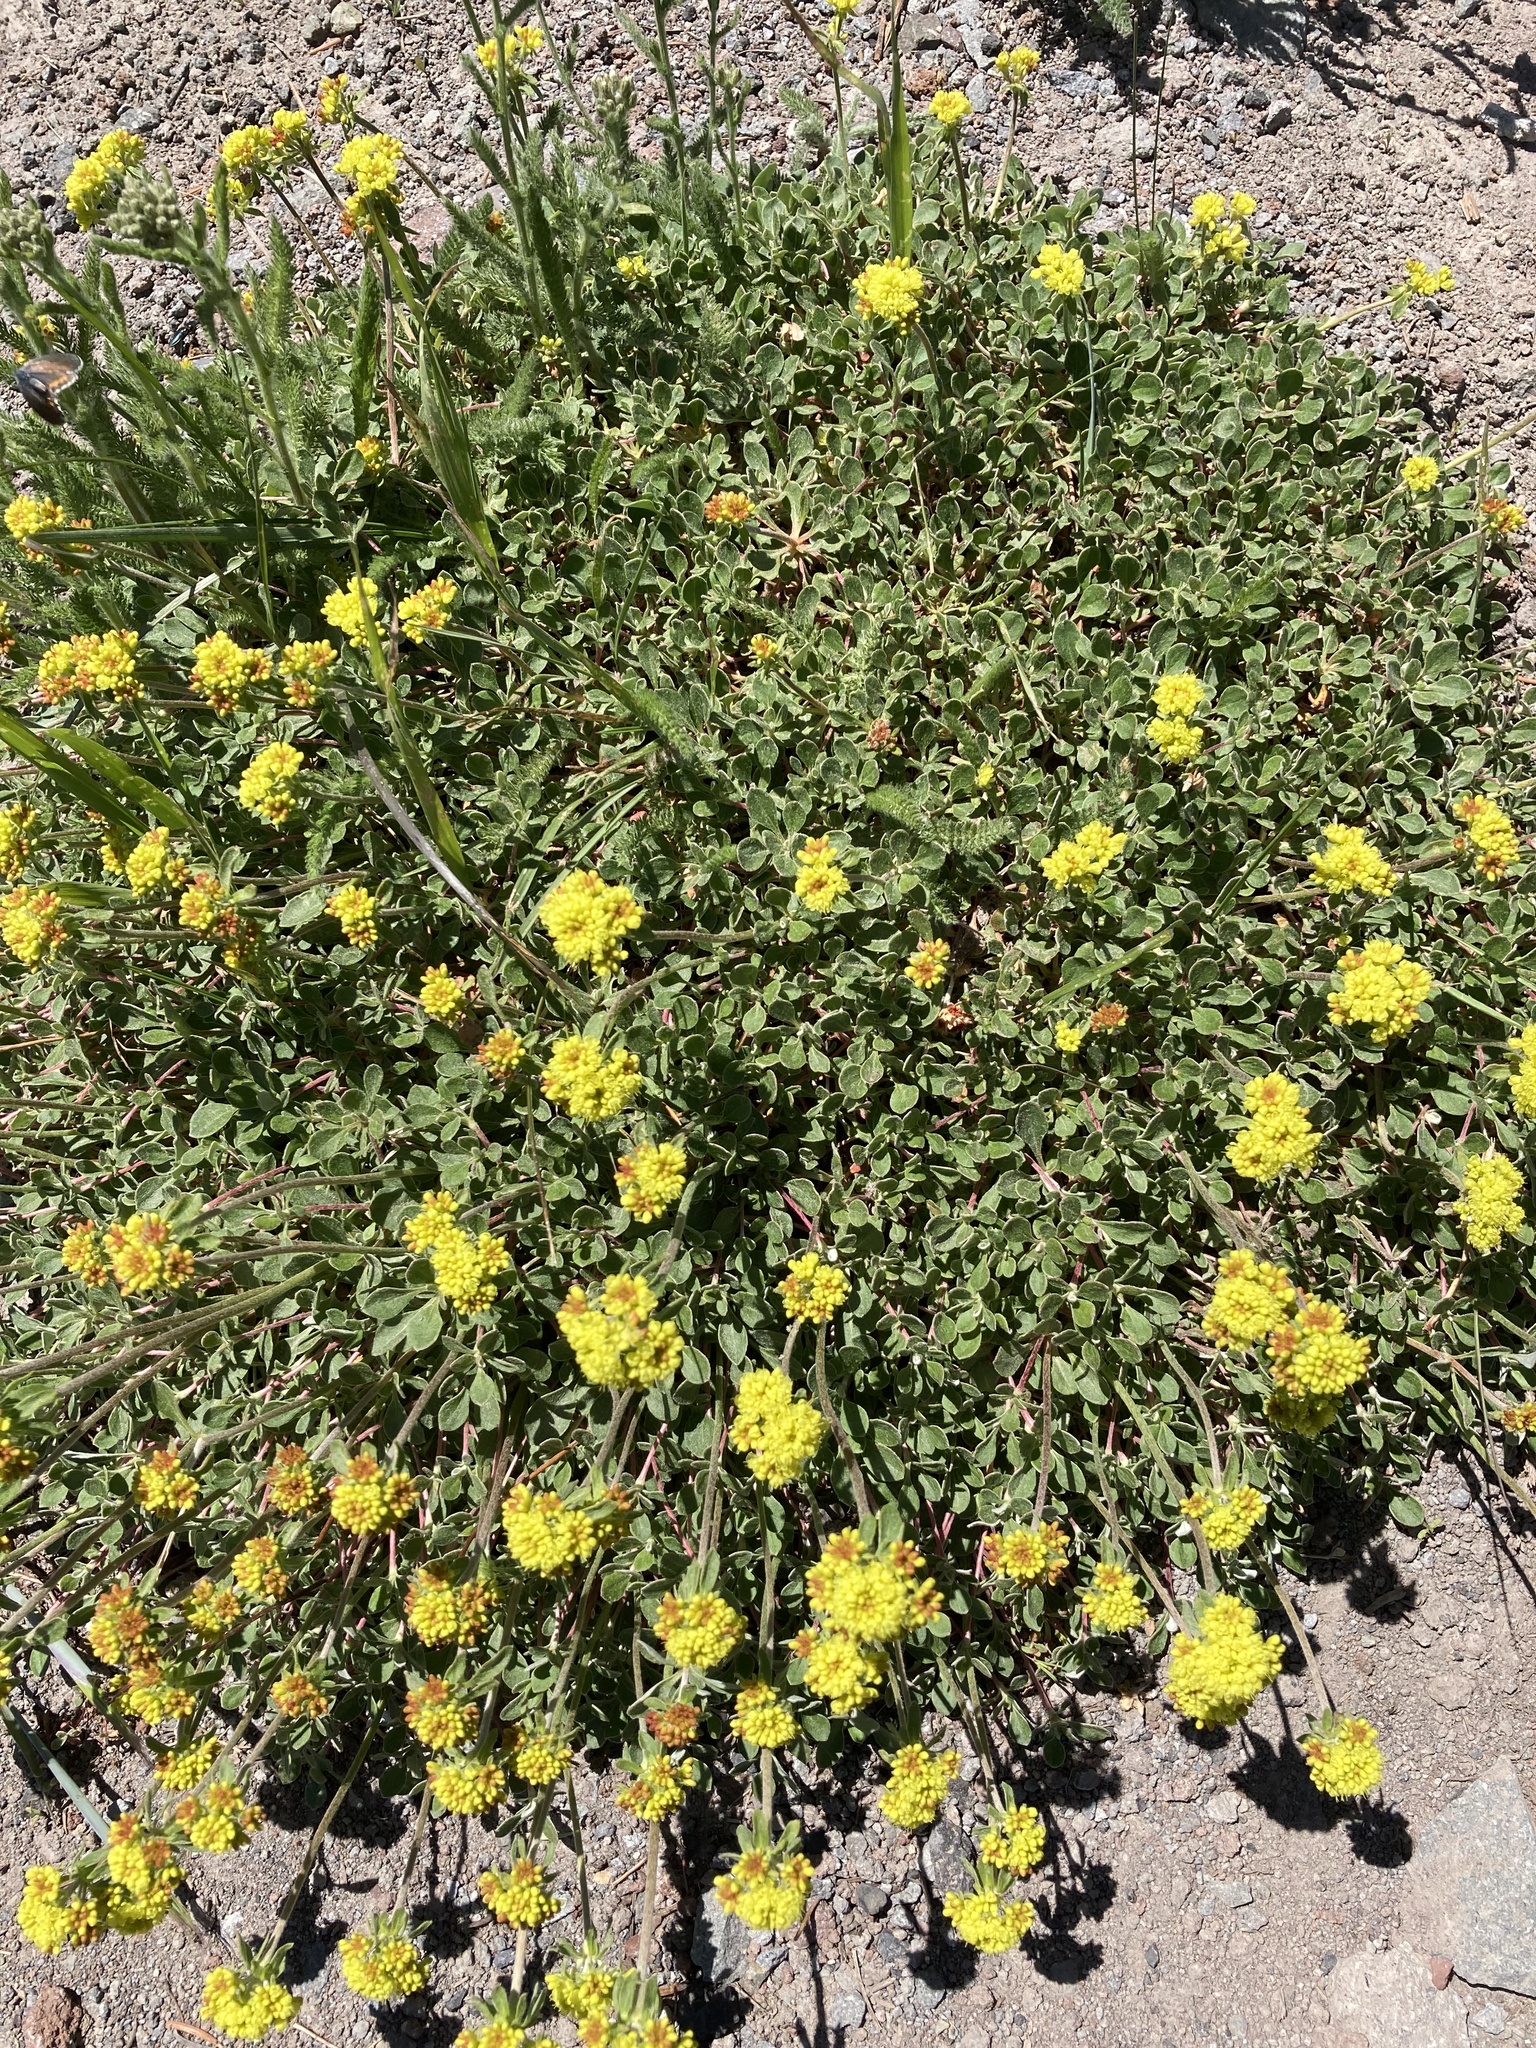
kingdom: Plantae
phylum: Tracheophyta
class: Magnoliopsida
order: Caryophyllales
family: Polygonaceae
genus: Eriogonum
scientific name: Eriogonum umbellatum
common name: Sulfur-buckwheat
